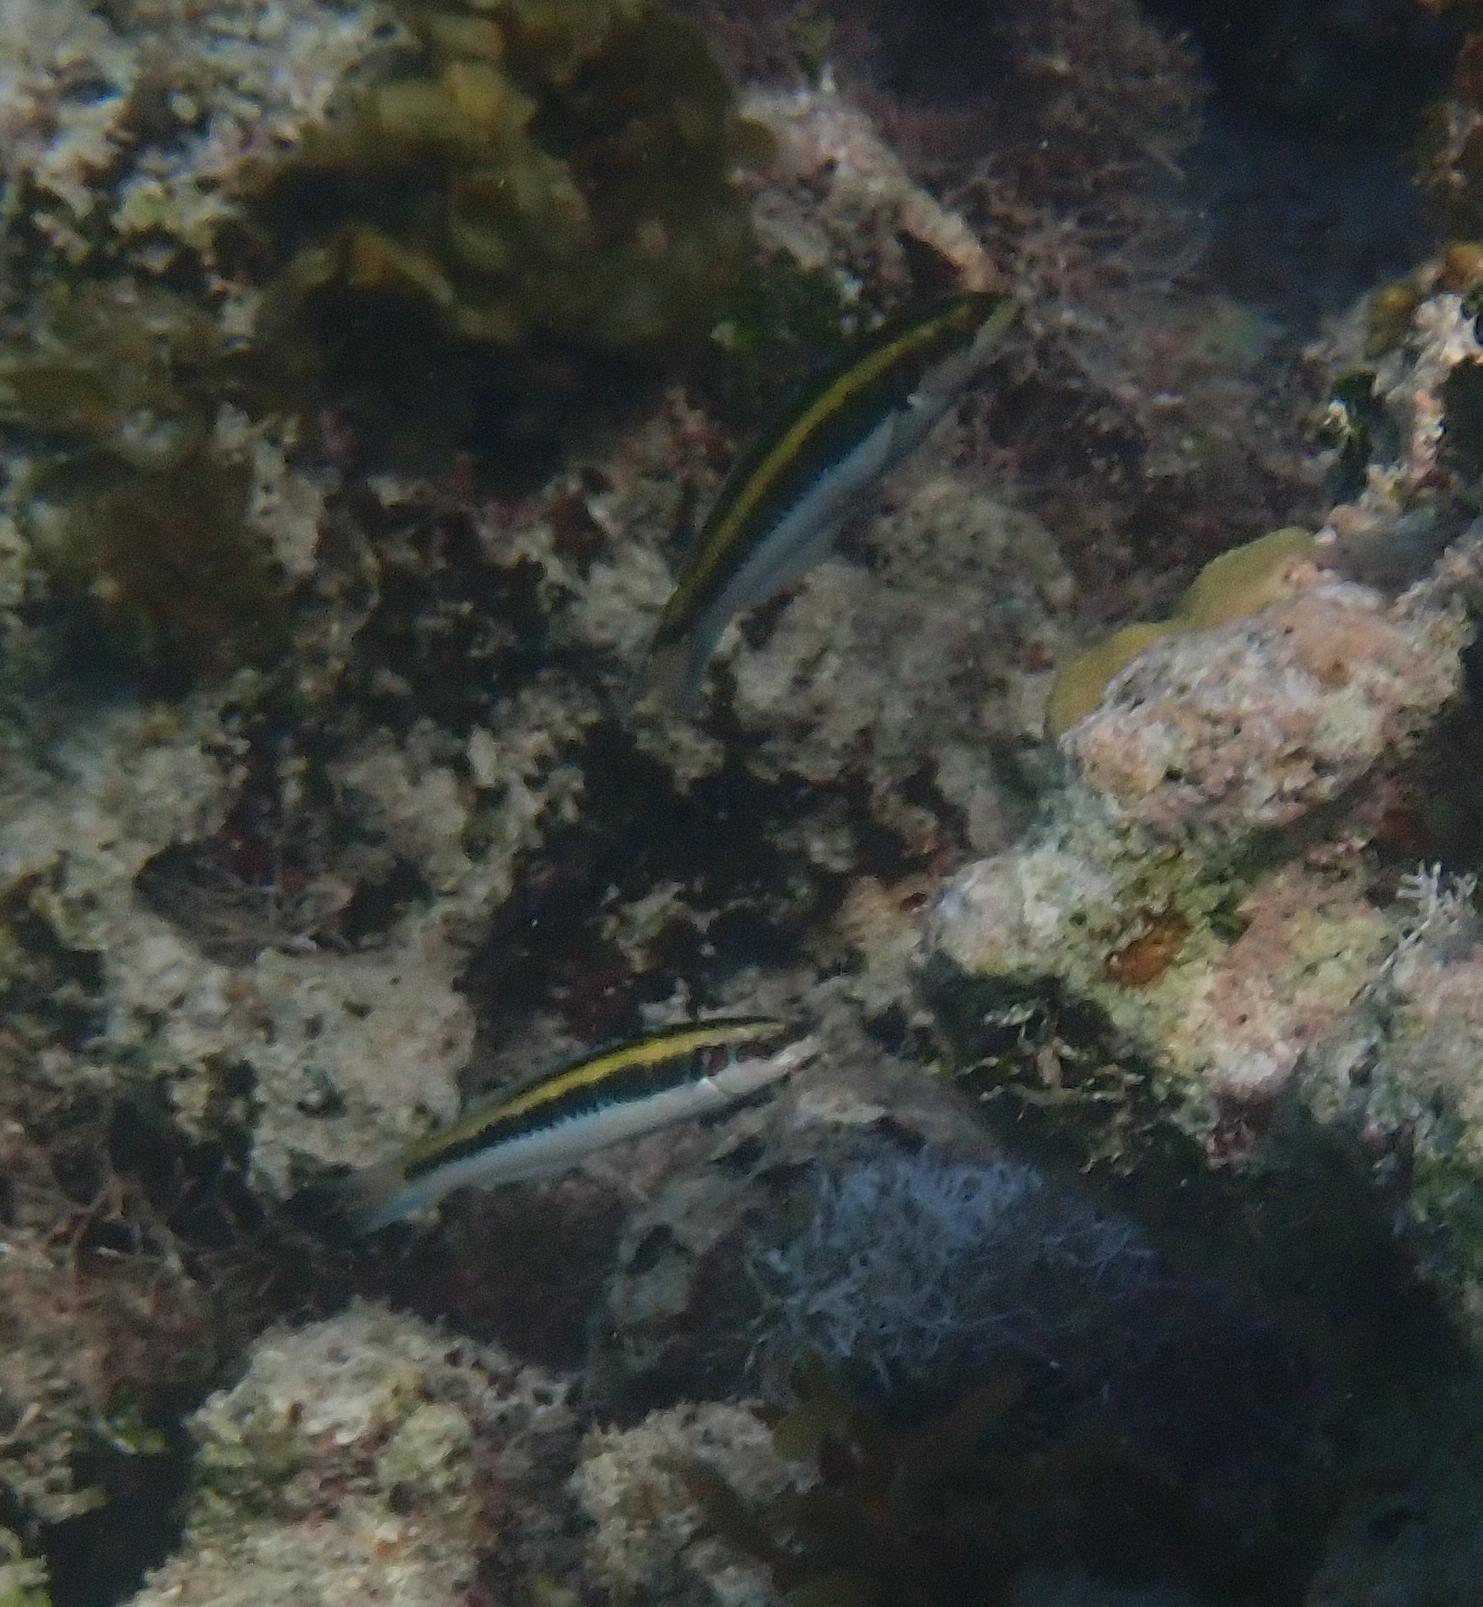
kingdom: Animalia
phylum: Chordata
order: Perciformes
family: Labridae
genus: Thalassoma
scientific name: Thalassoma bifasciatum
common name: Bluehead wrasse
